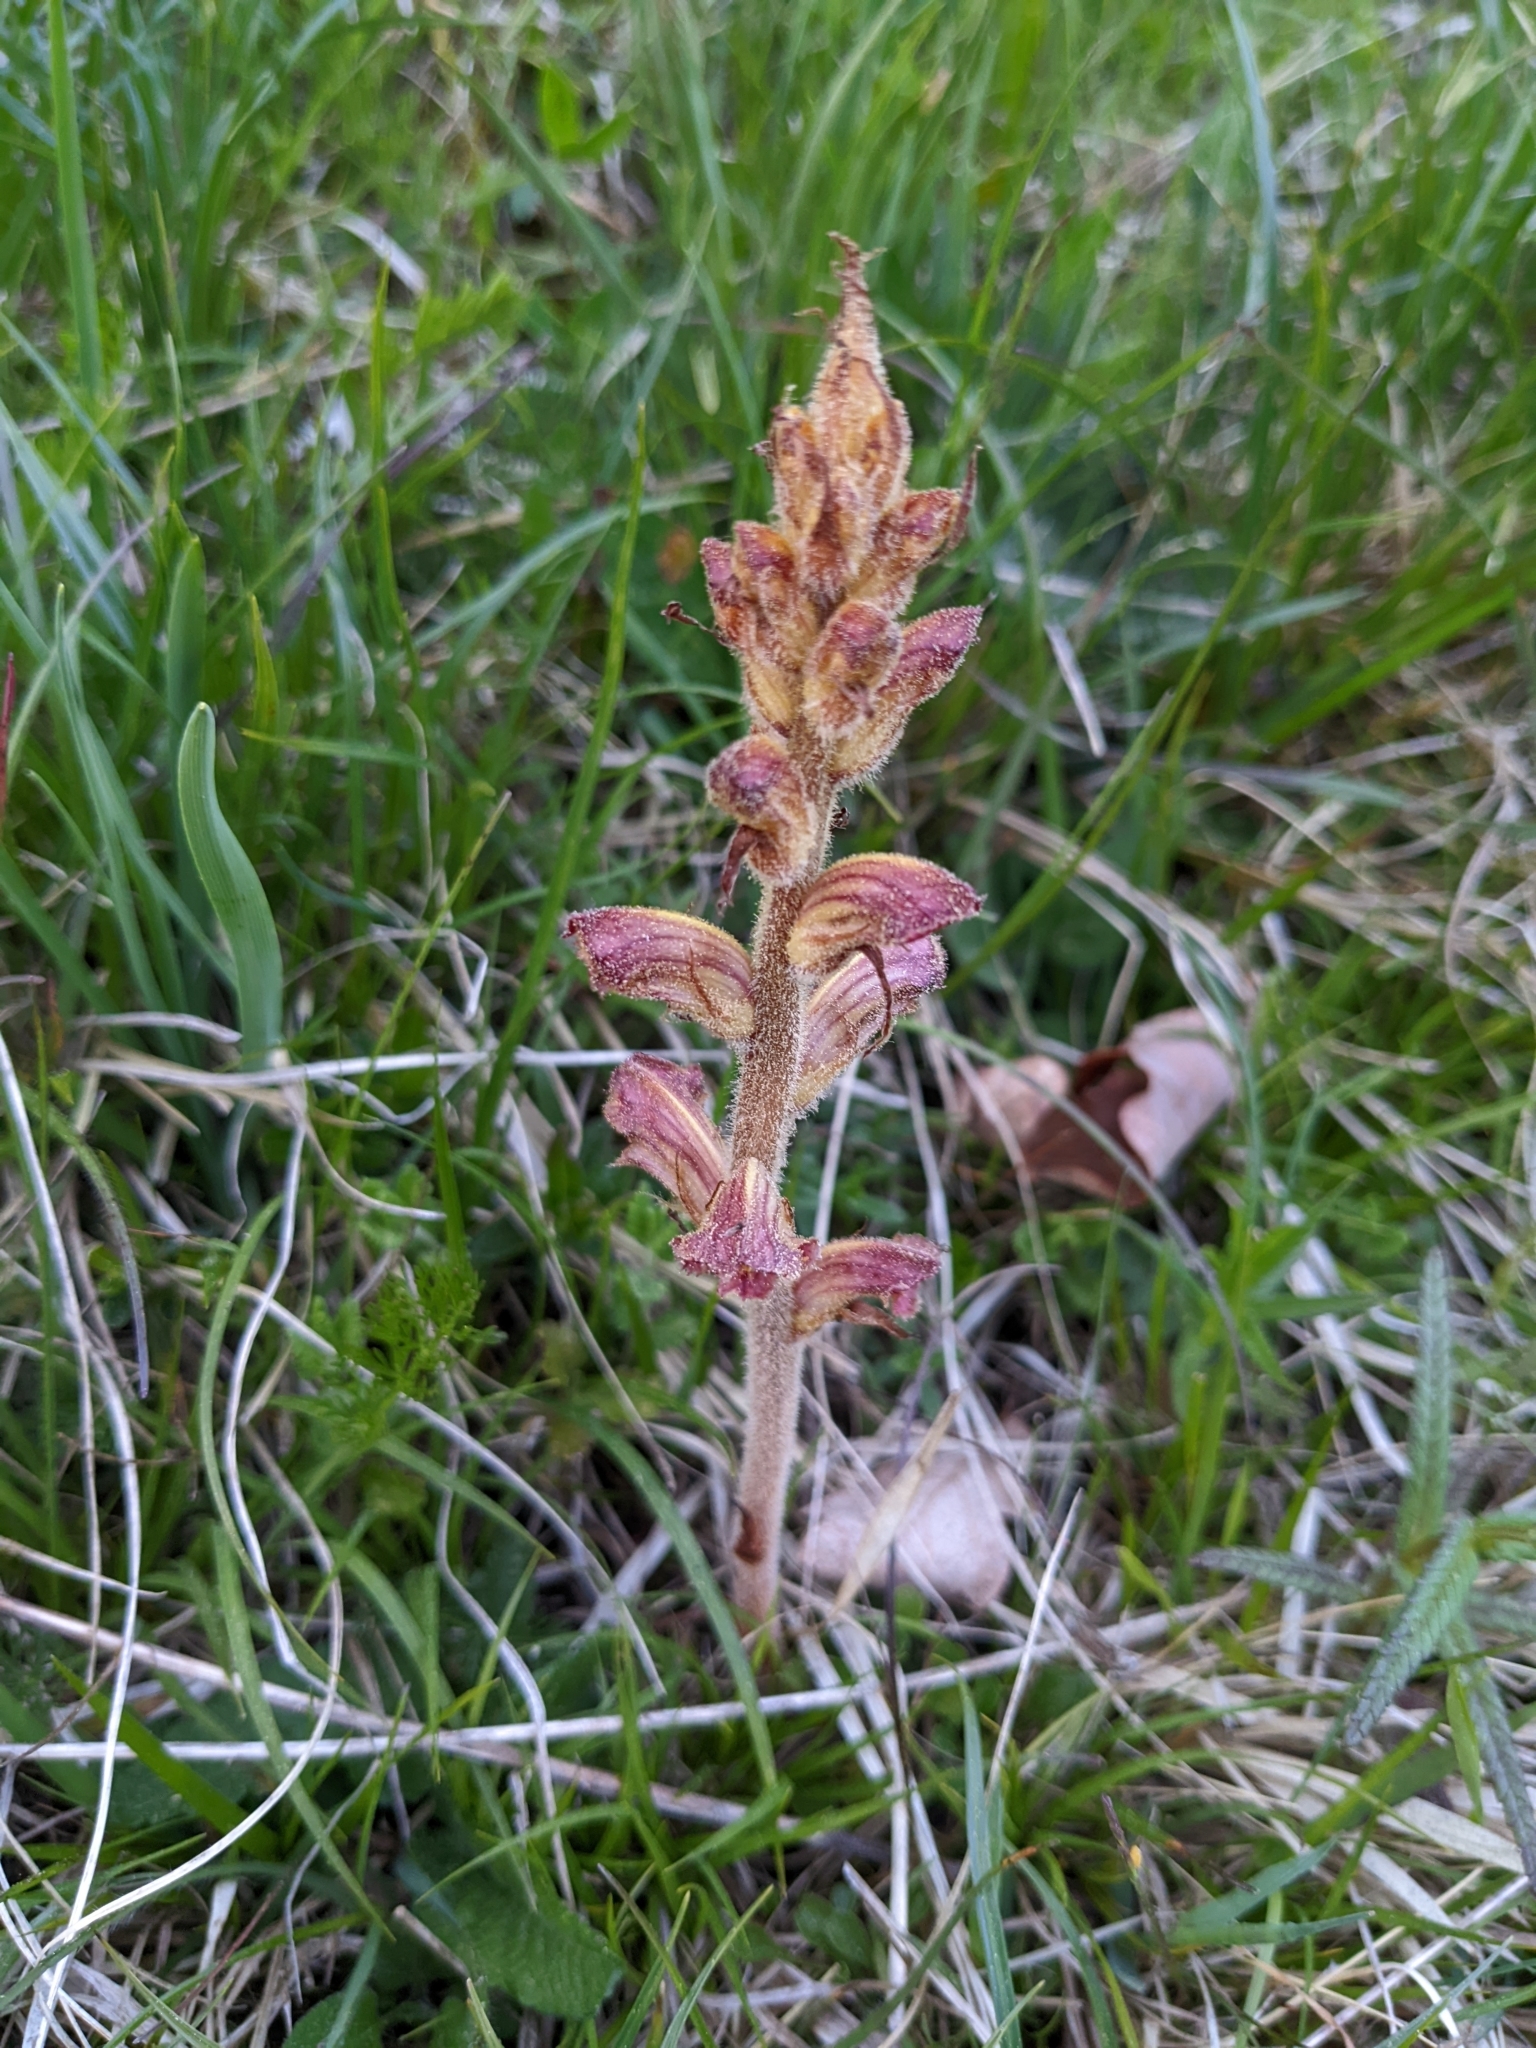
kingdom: Plantae
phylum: Tracheophyta
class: Magnoliopsida
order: Lamiales
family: Orobanchaceae
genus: Orobanche
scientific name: Orobanche gracilis
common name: Slender broomrape
